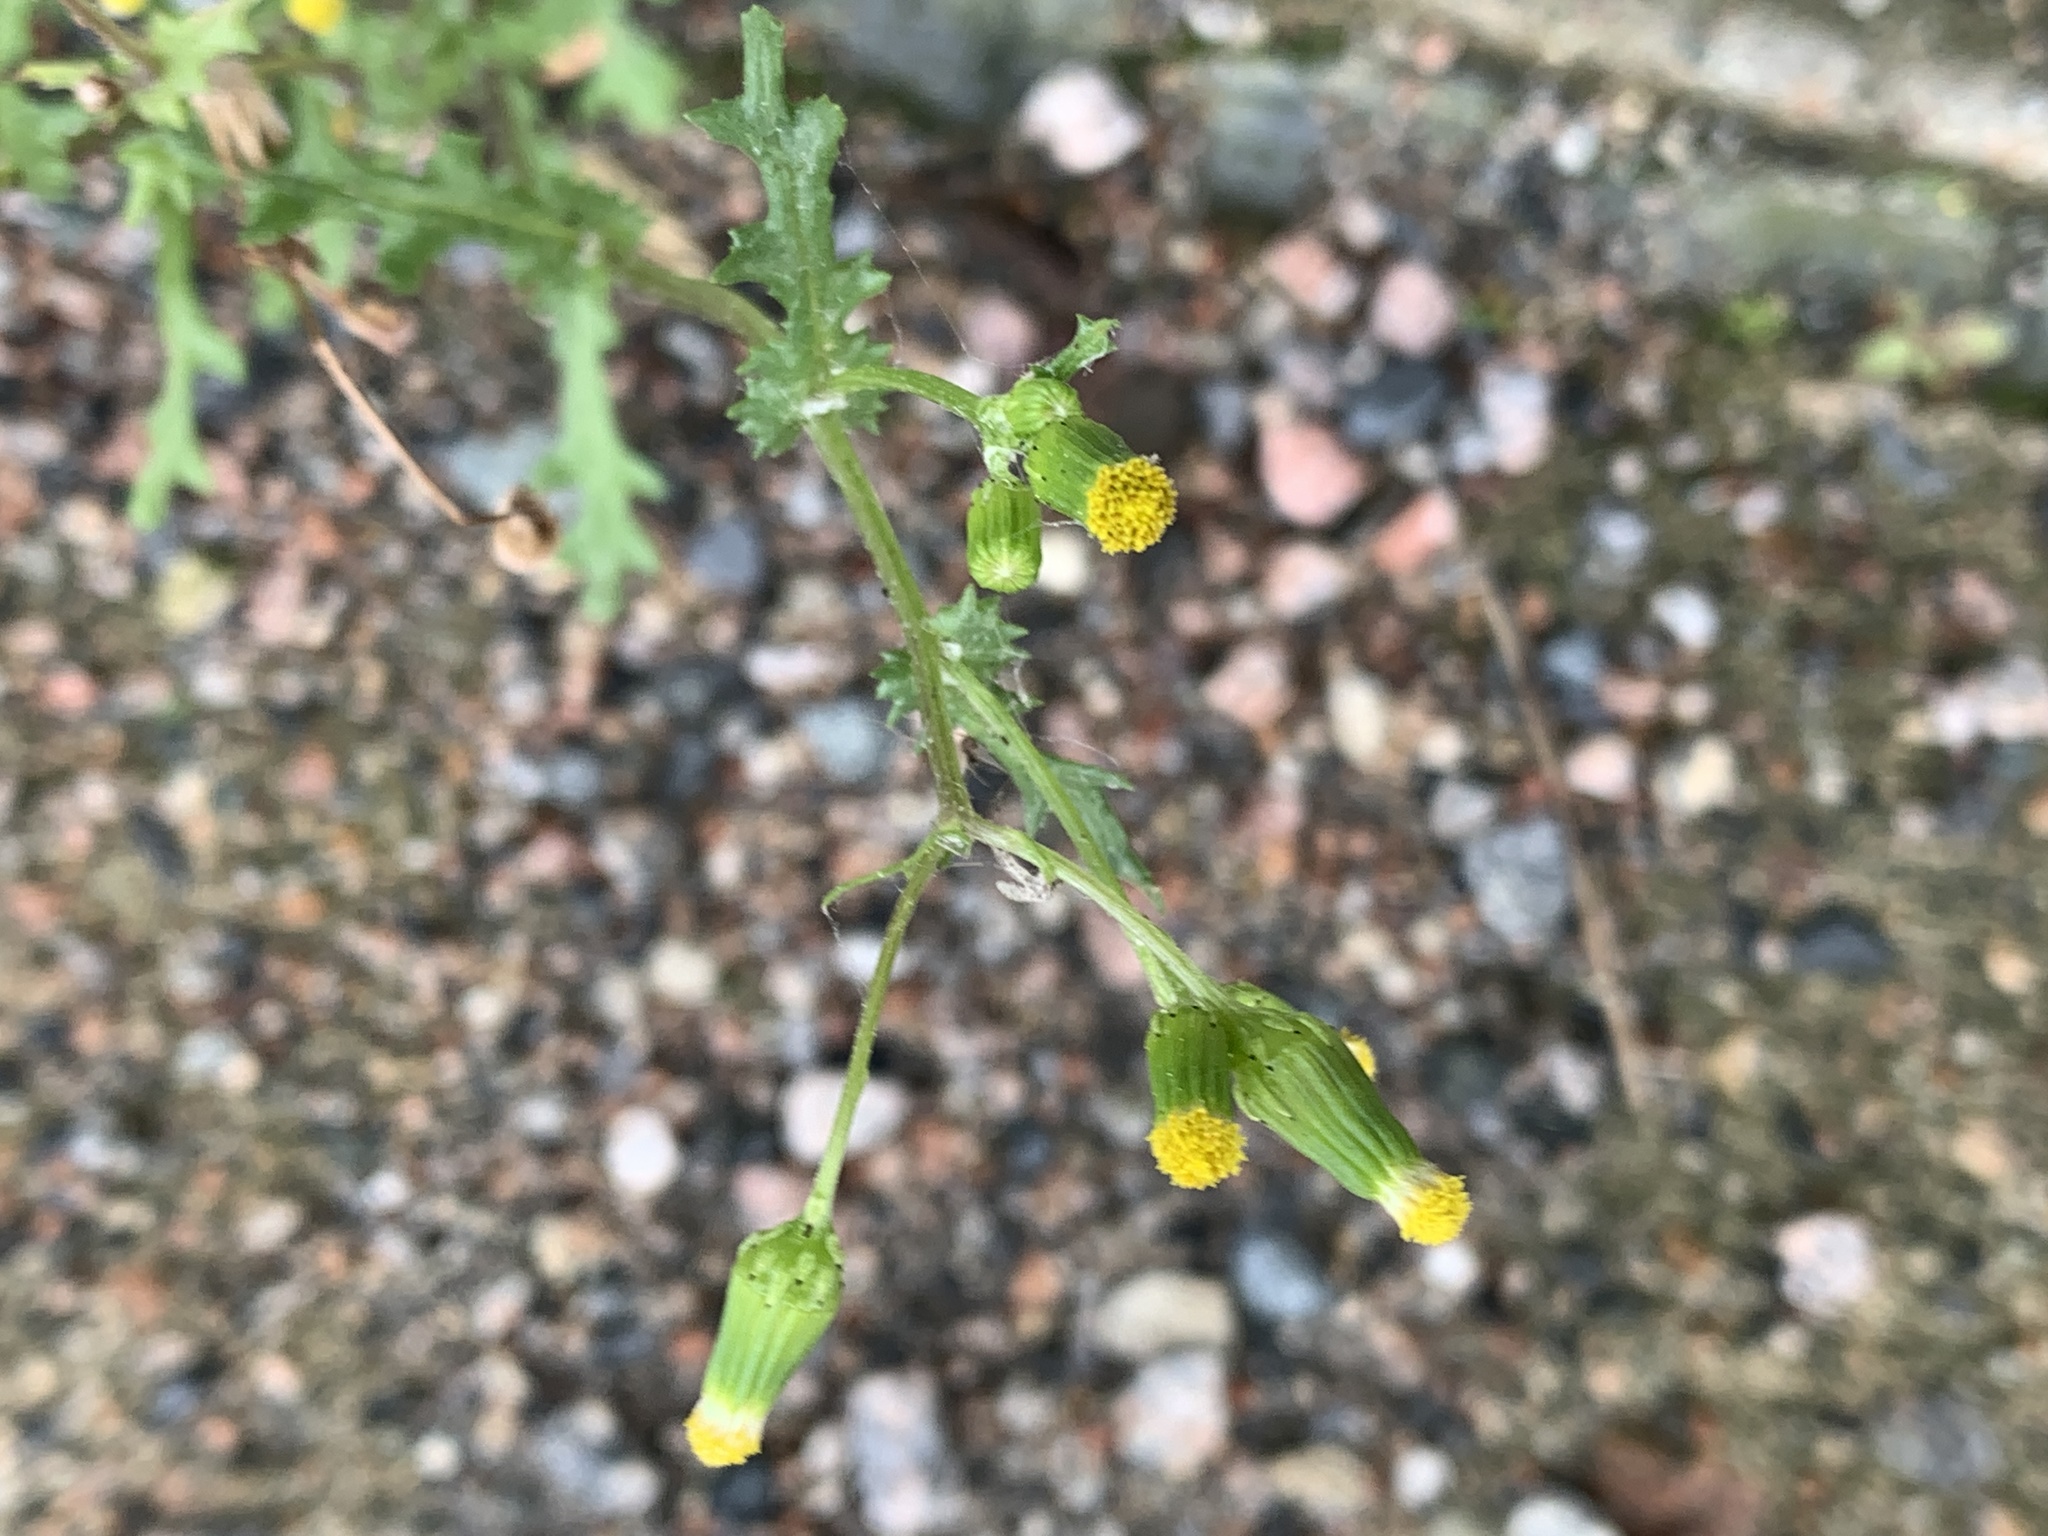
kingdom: Plantae
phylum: Tracheophyta
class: Magnoliopsida
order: Asterales
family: Asteraceae
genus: Senecio
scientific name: Senecio vulgaris
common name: Old-man-in-the-spring
